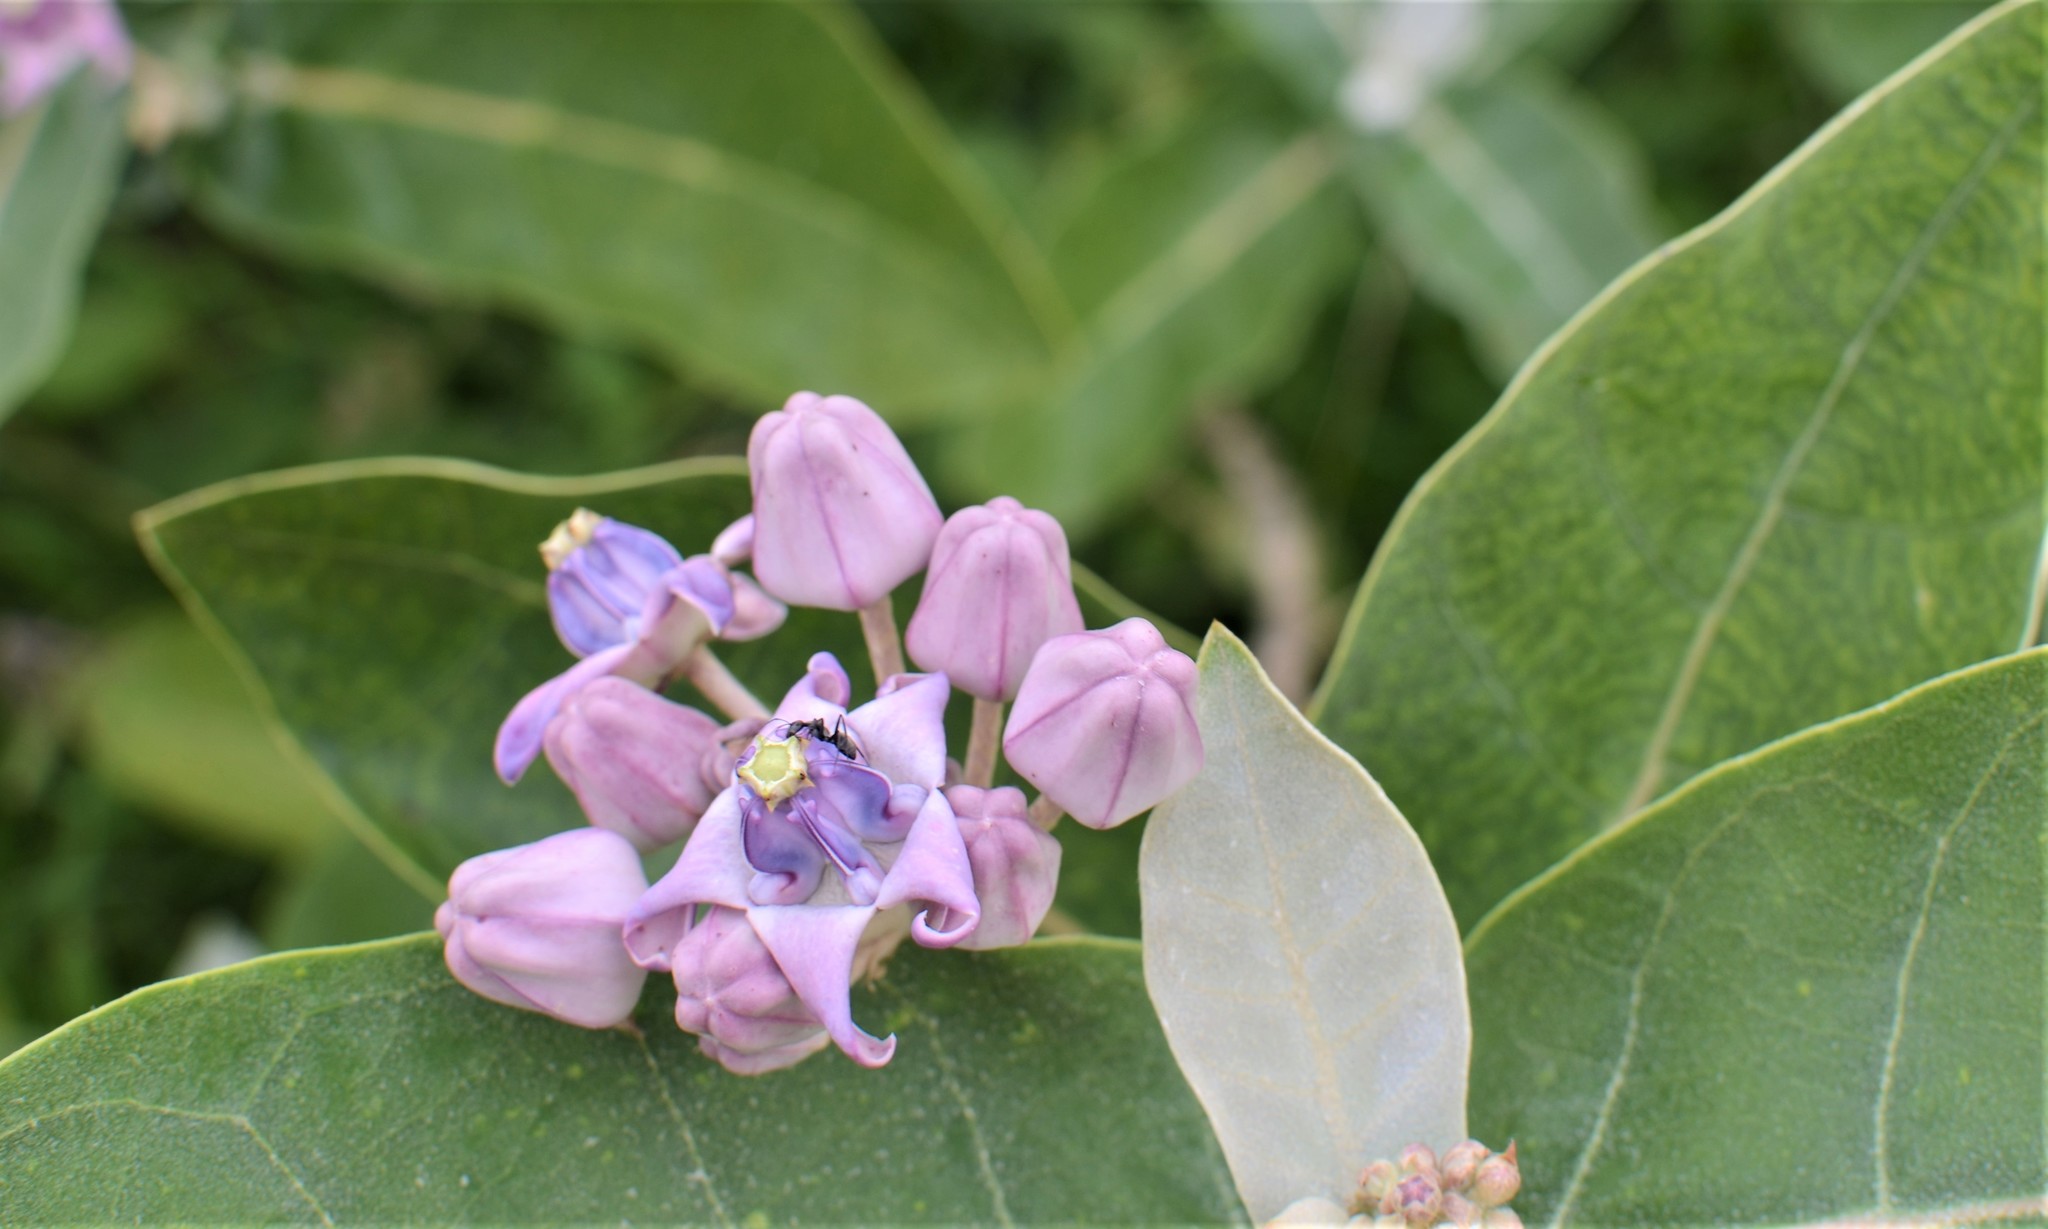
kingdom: Plantae
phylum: Tracheophyta
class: Magnoliopsida
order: Gentianales
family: Apocynaceae
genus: Calotropis
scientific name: Calotropis gigantea
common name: Crown flower
